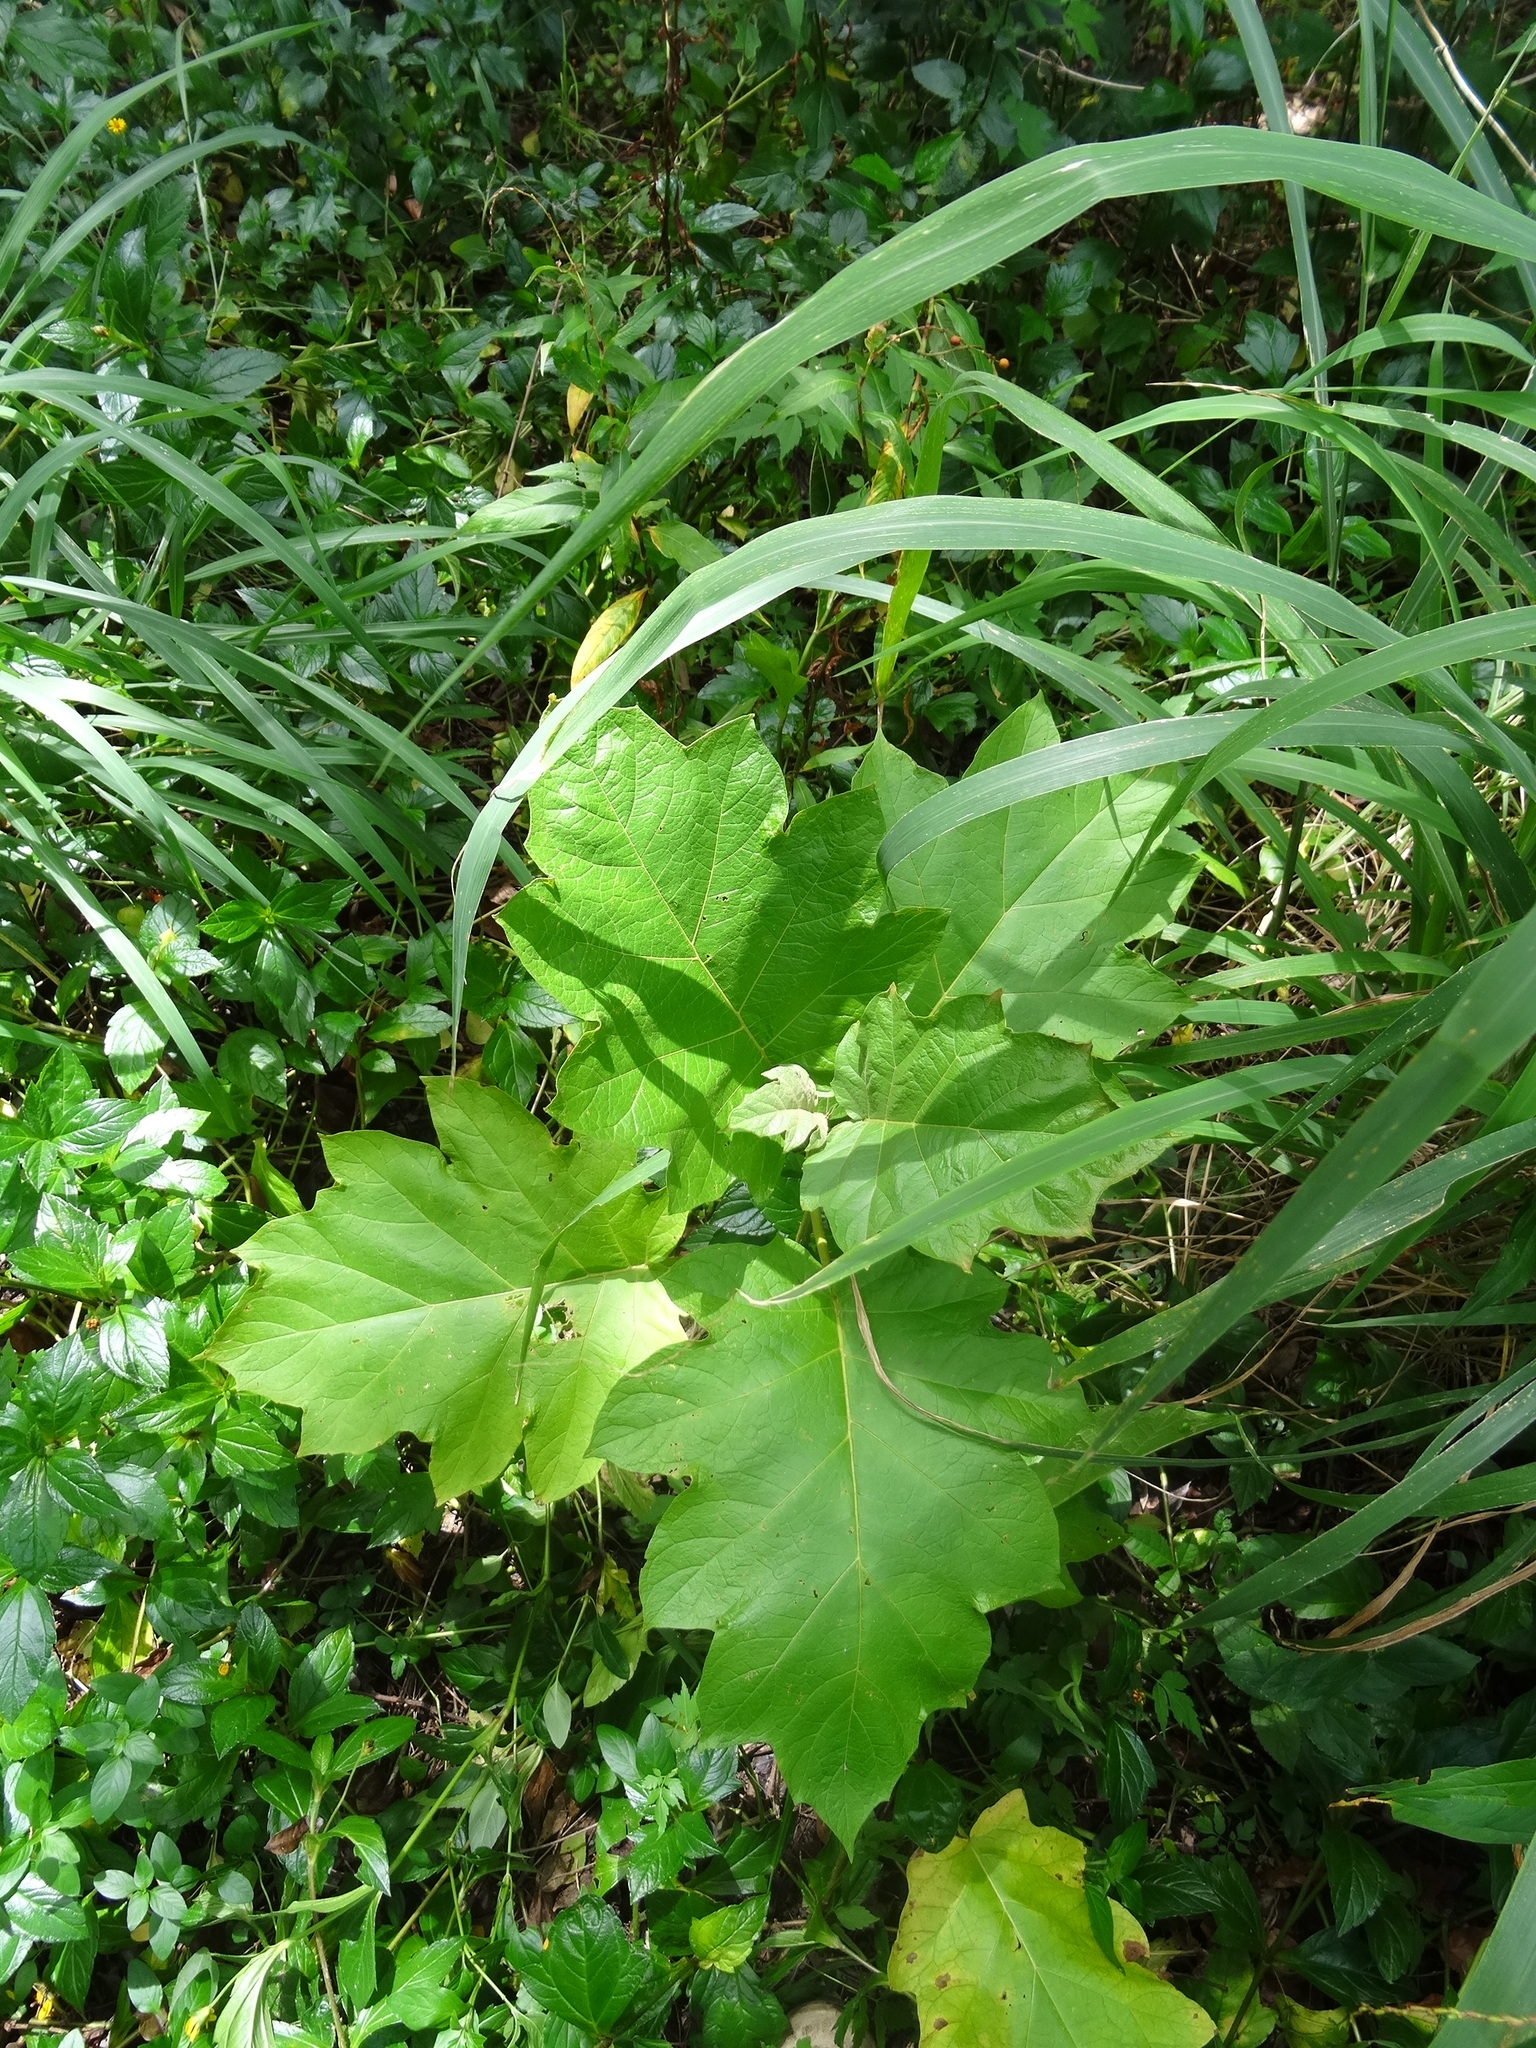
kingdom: Plantae
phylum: Tracheophyta
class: Magnoliopsida
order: Solanales
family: Solanaceae
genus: Solanum
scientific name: Solanum chrysotrichum
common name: Nightshade
